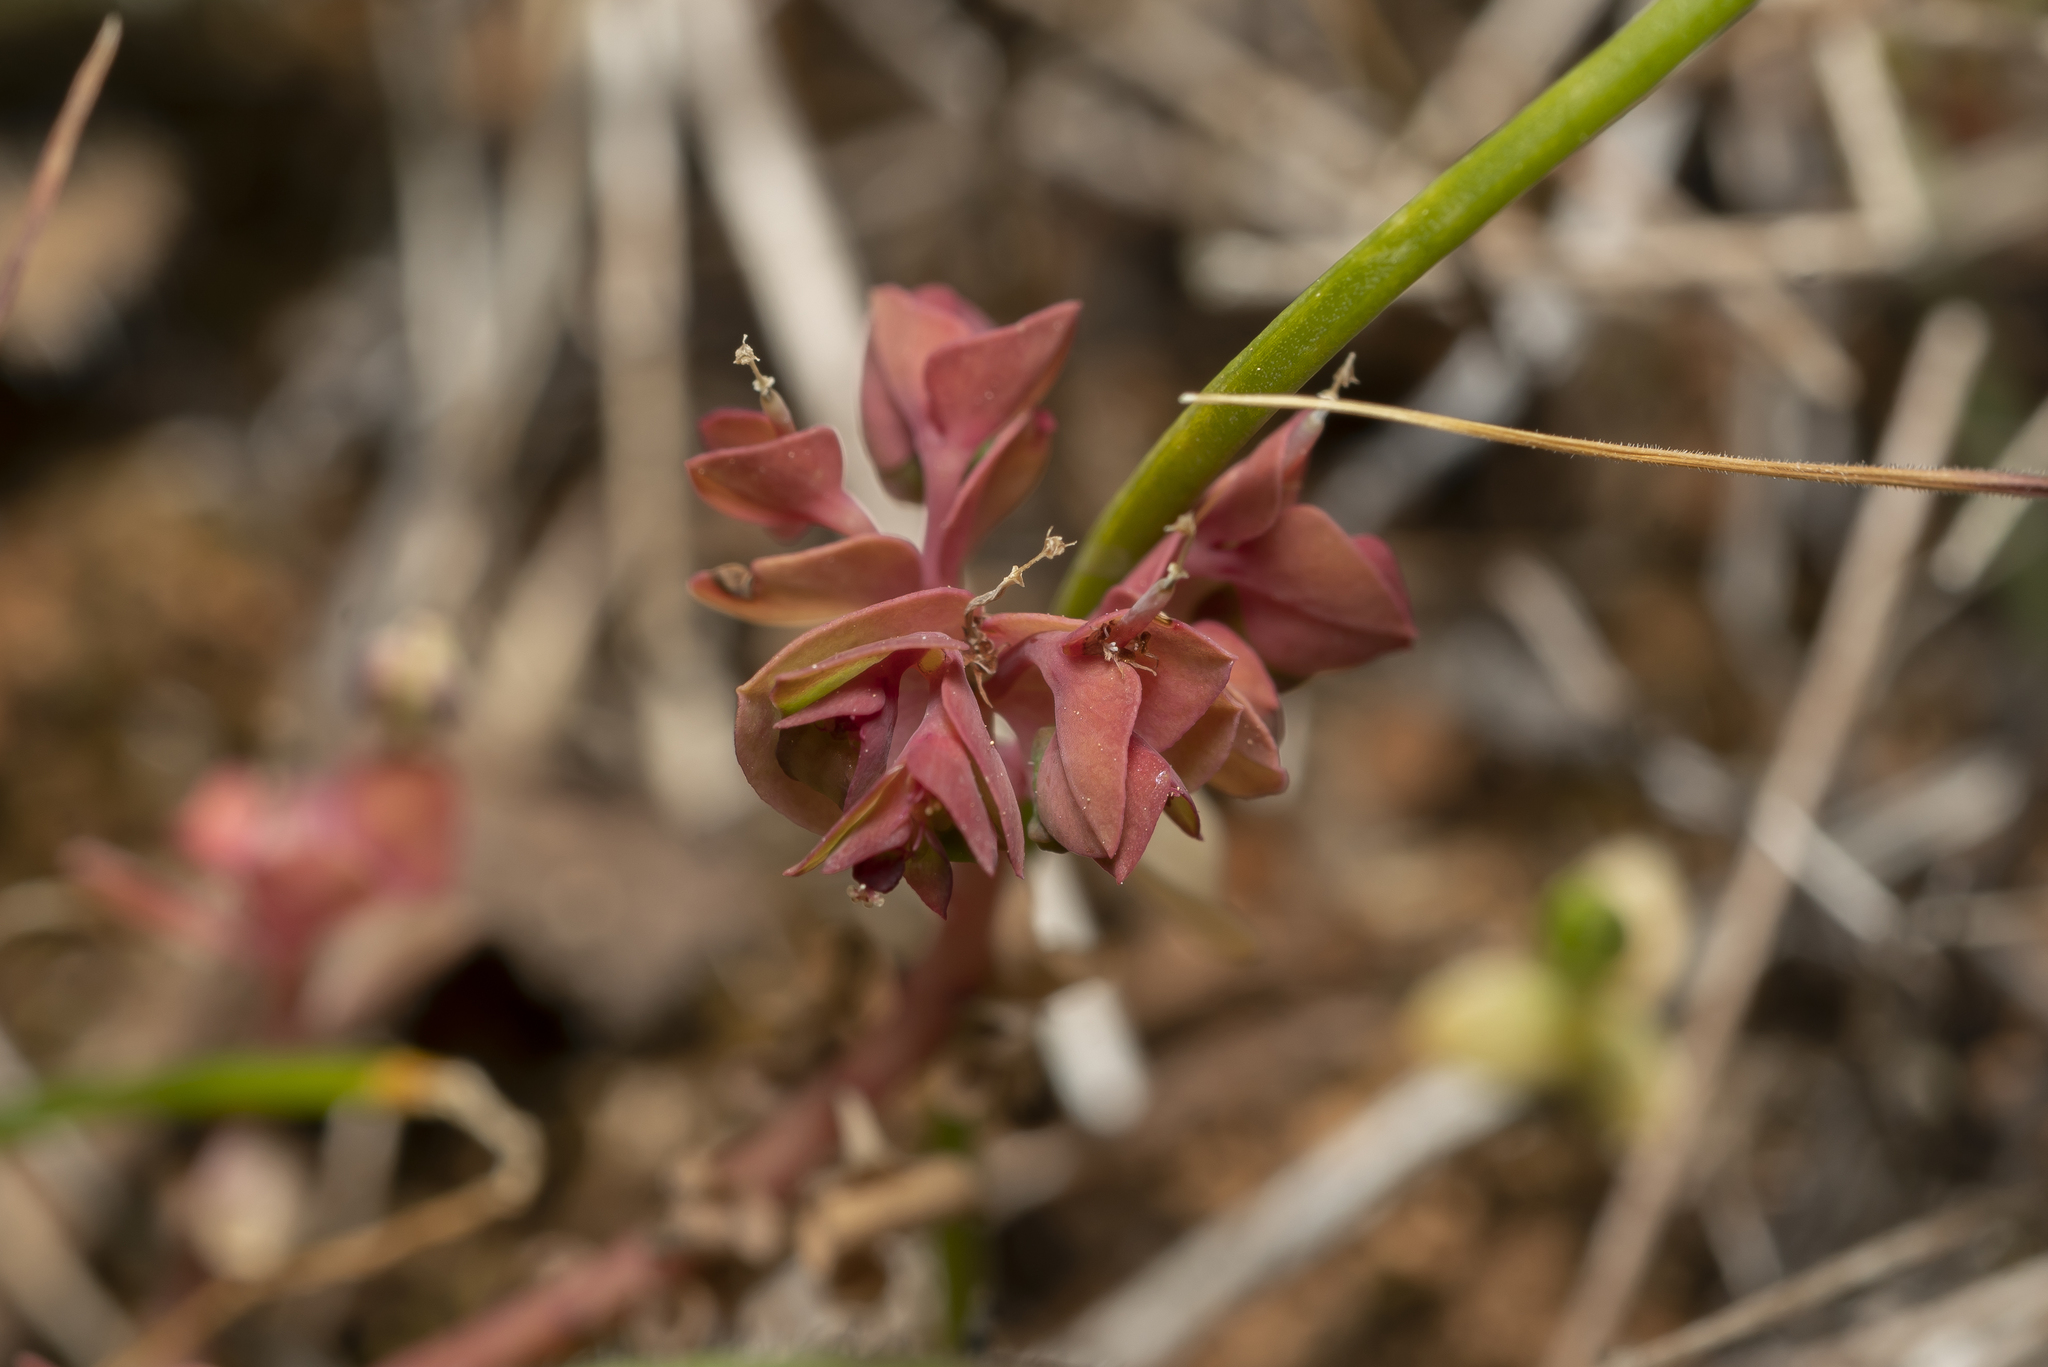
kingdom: Plantae
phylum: Tracheophyta
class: Magnoliopsida
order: Malpighiales
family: Euphorbiaceae
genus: Euphorbia
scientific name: Euphorbia peplus
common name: Petty spurge
